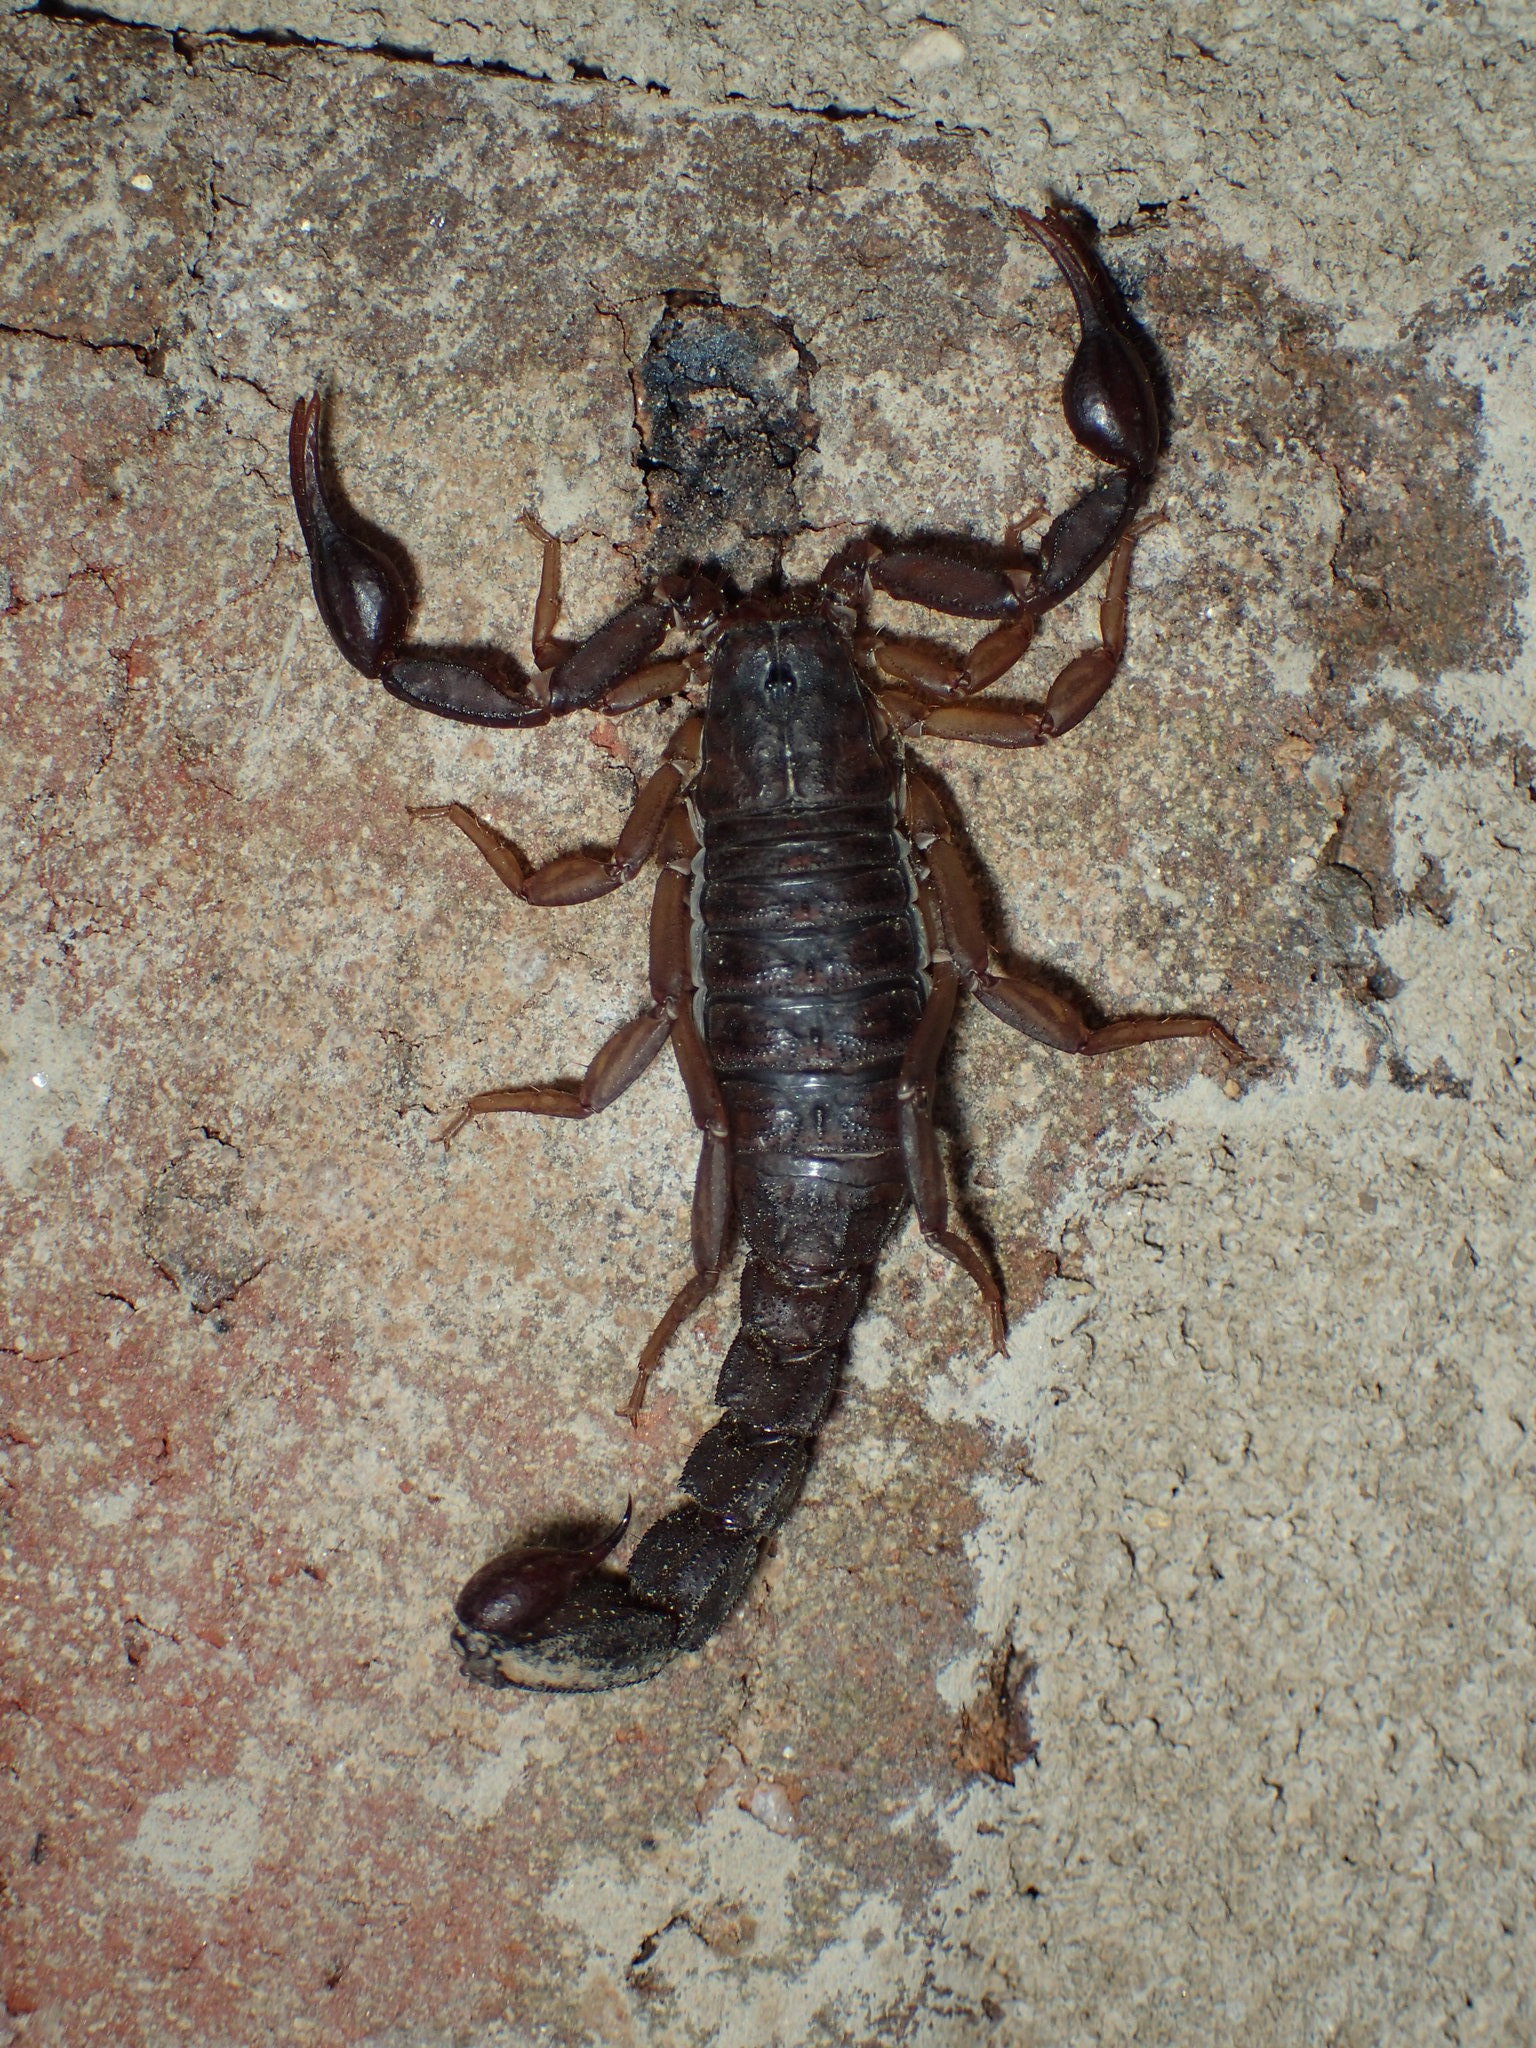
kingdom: Animalia
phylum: Arthropoda
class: Arachnida
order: Scorpiones
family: Vaejovidae
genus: Vaejovis
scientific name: Vaejovis carolinianus
